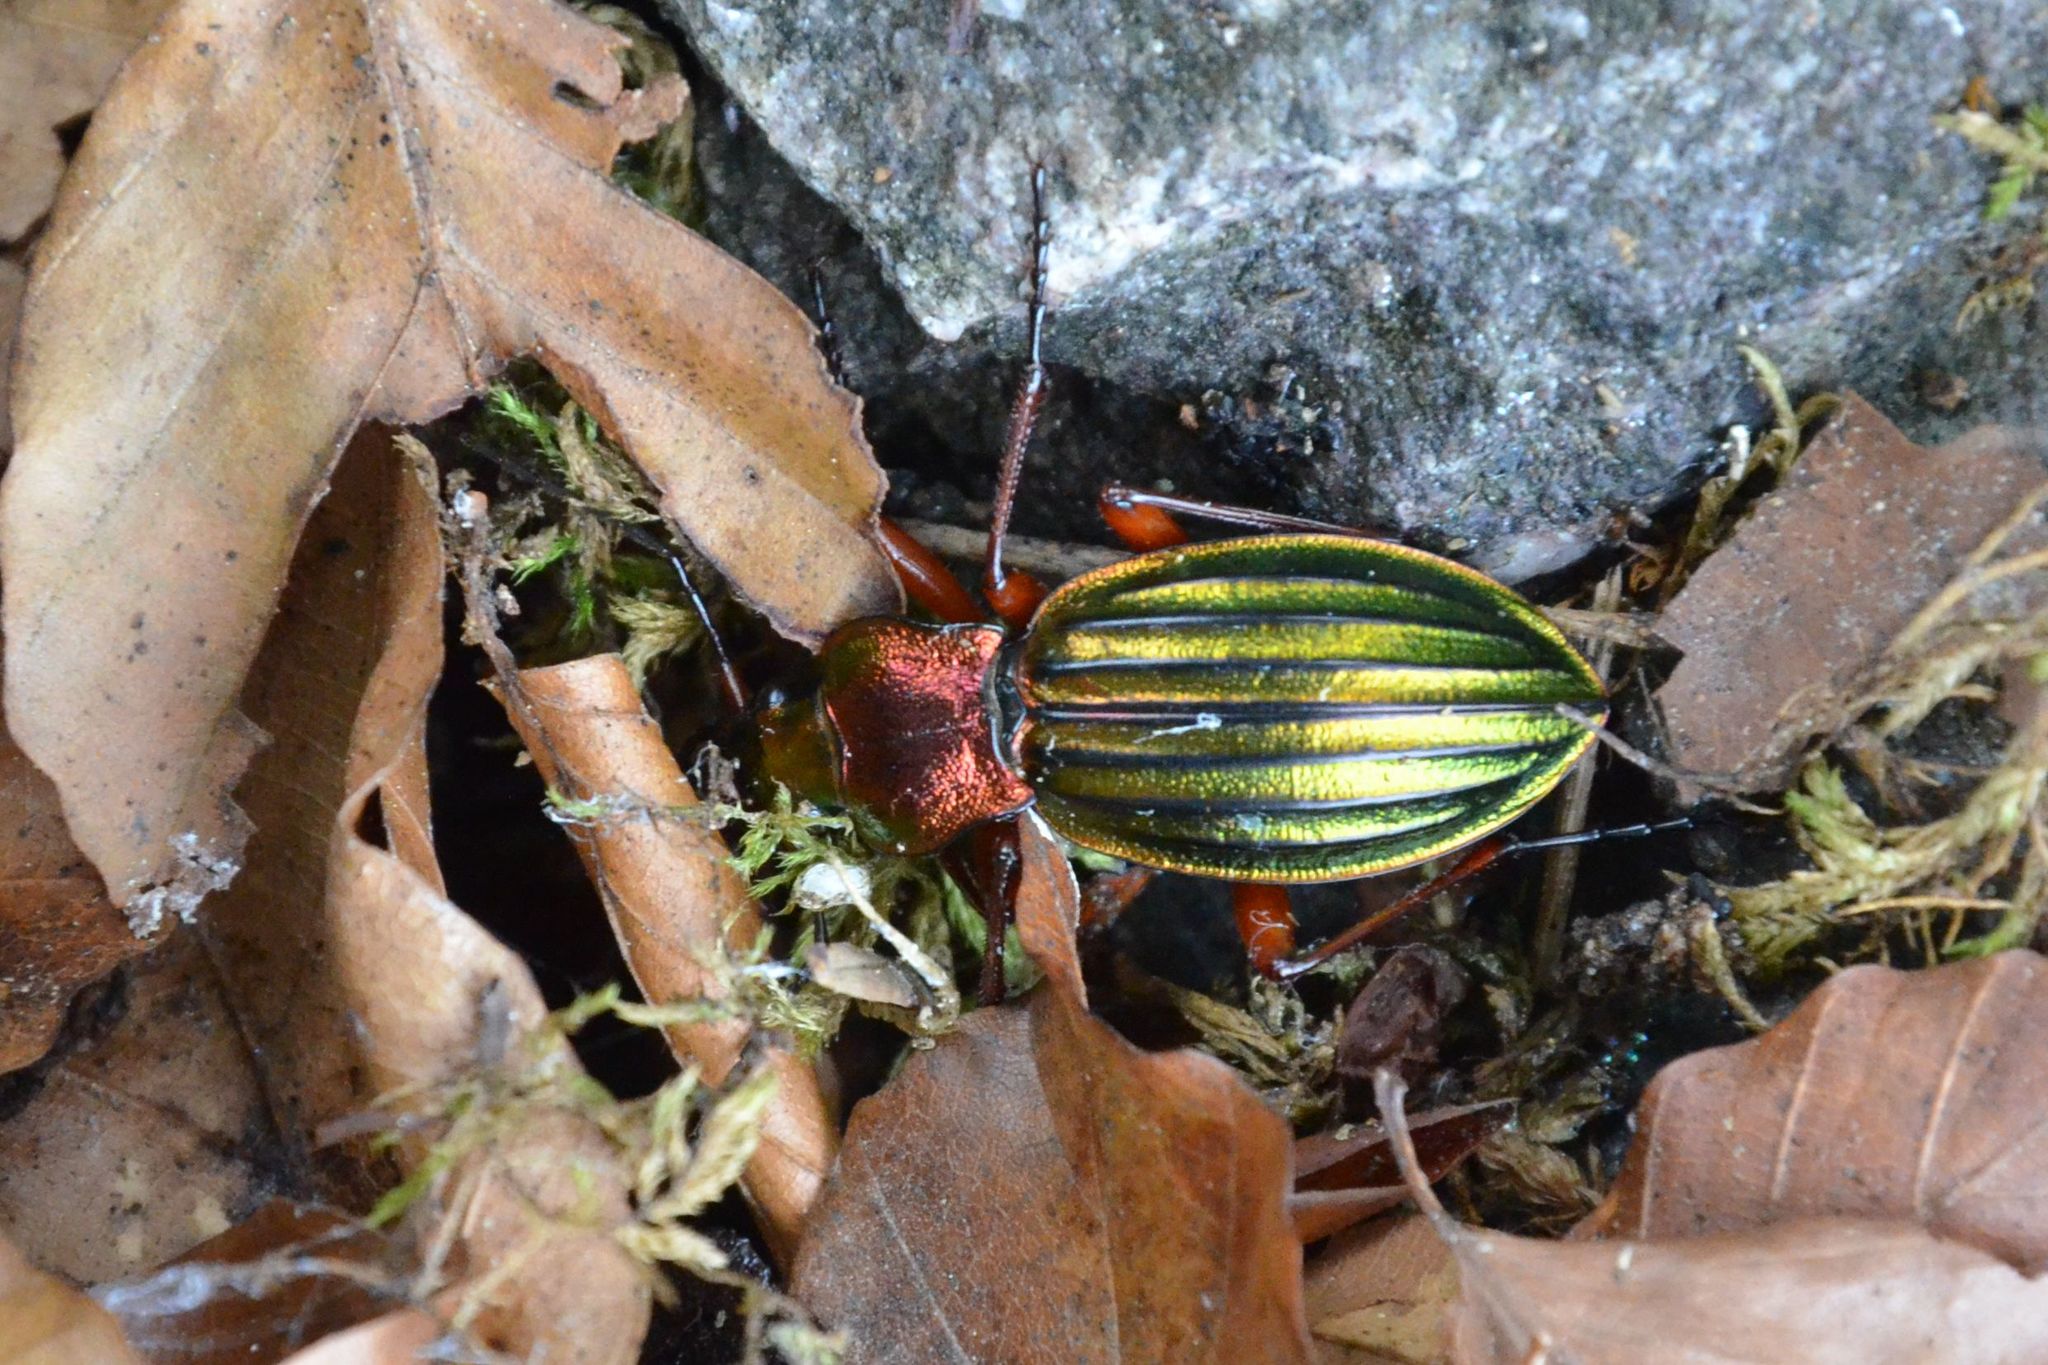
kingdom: Animalia
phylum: Arthropoda
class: Insecta
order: Coleoptera
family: Carabidae
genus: Carabus
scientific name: Carabus auronitens
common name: Carabus auronitens
